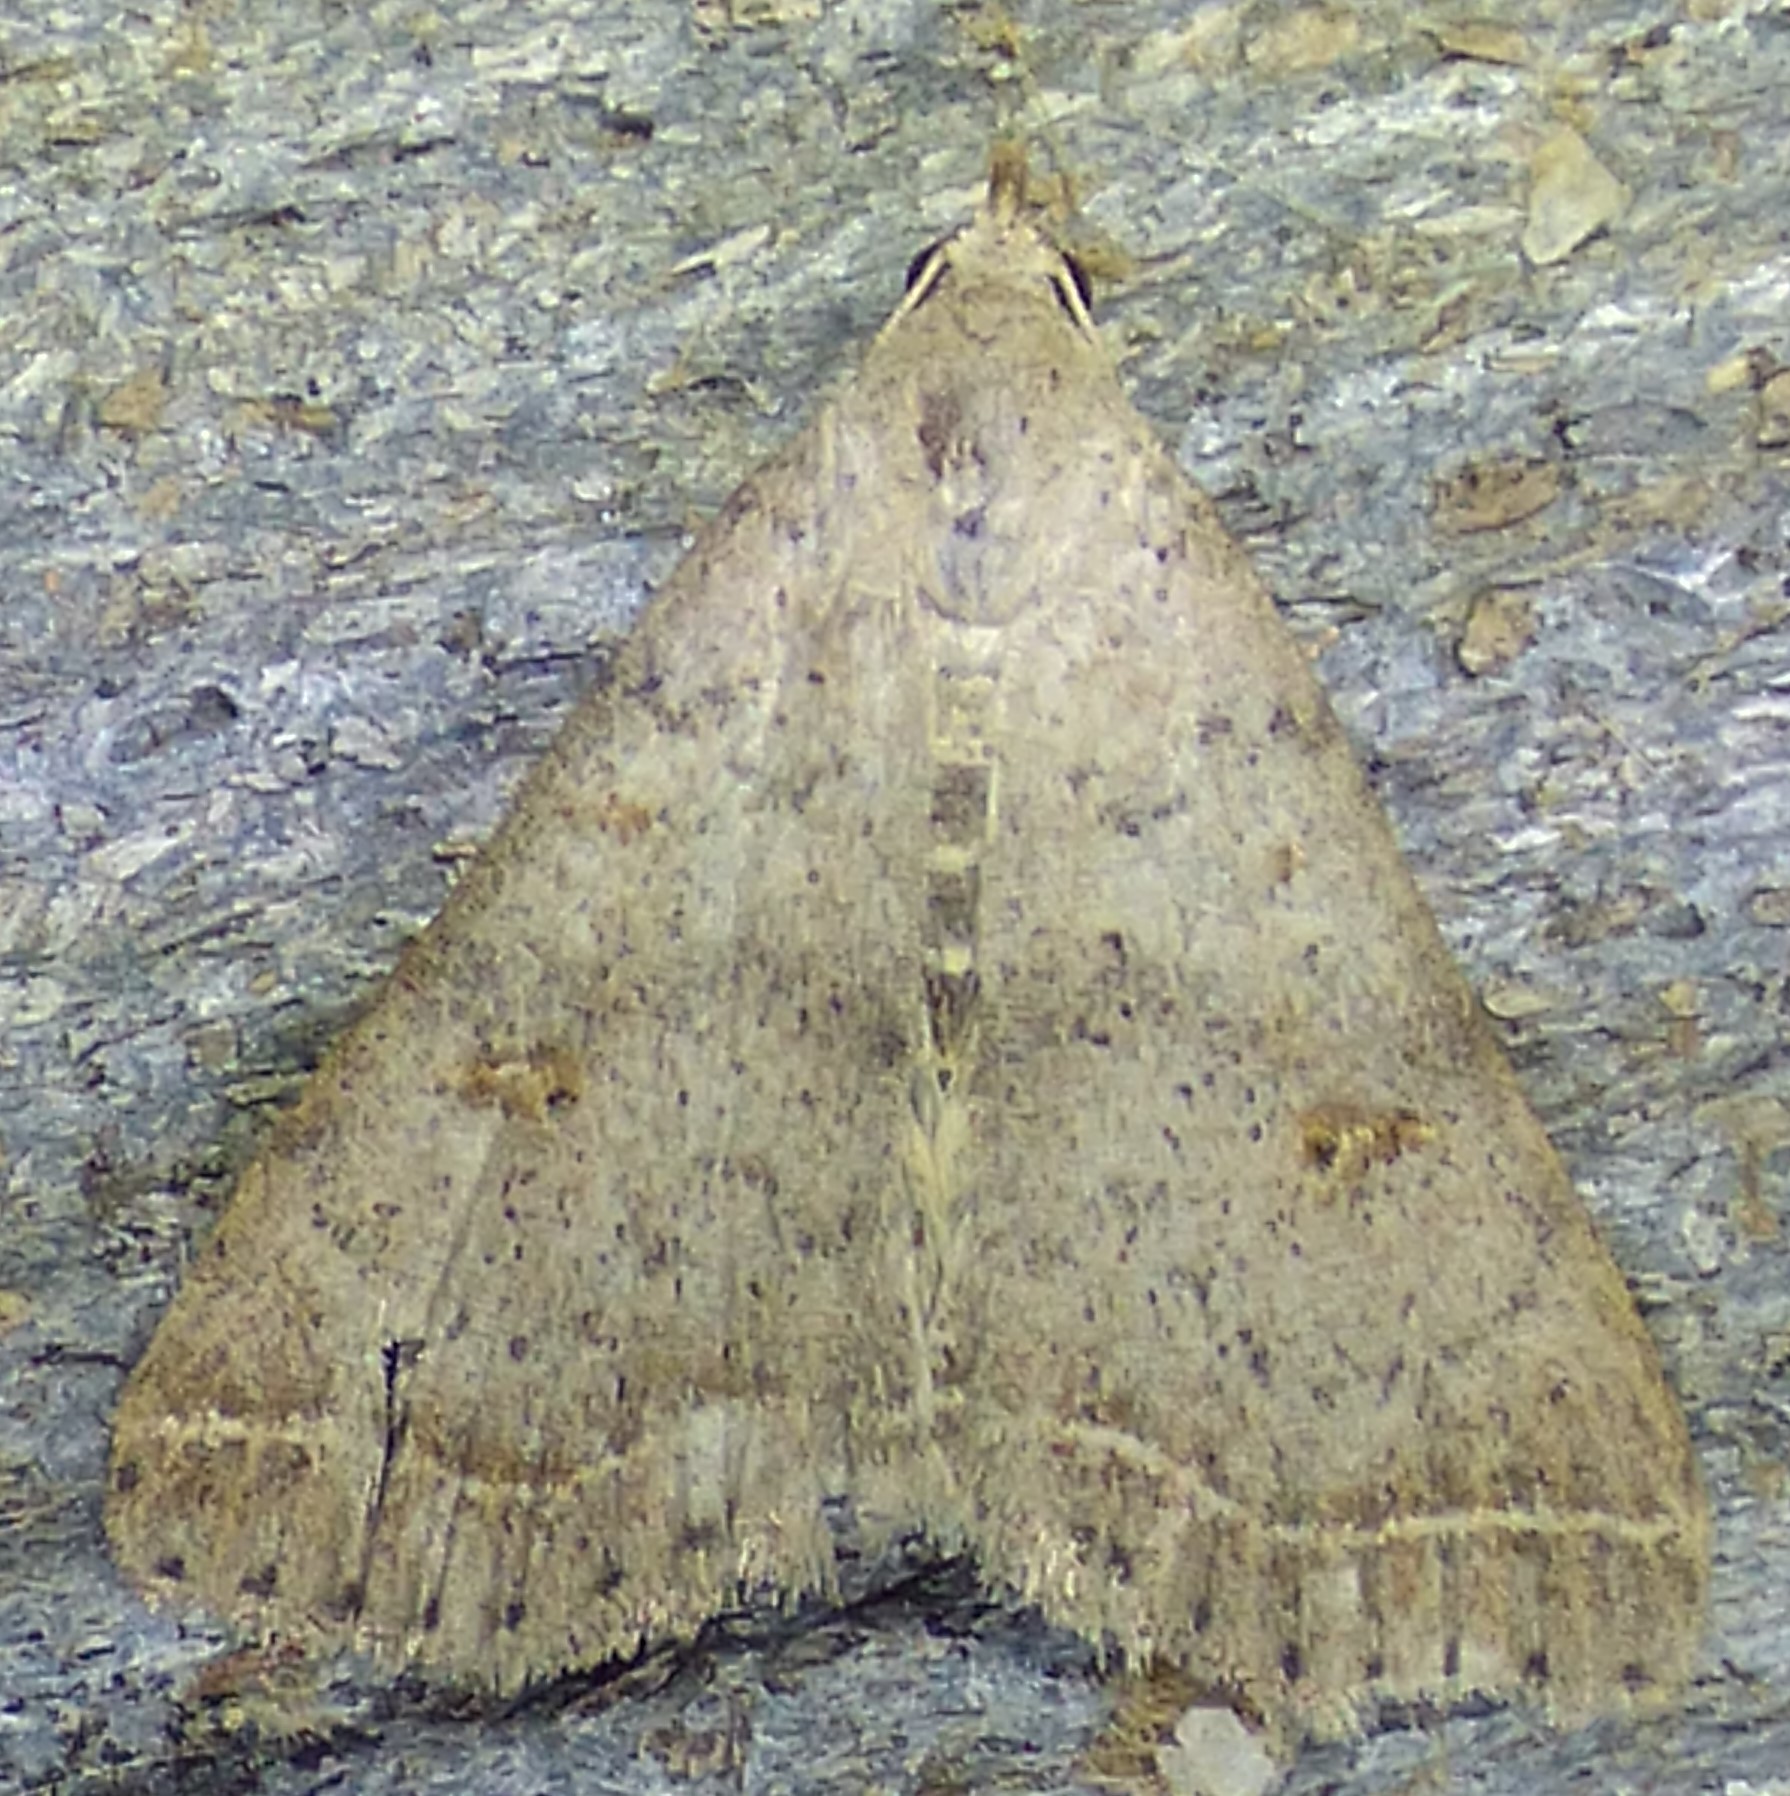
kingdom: Animalia
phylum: Arthropoda
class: Insecta
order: Lepidoptera
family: Erebidae
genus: Bleptina
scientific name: Bleptina caradrinalis
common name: Bent-winged owlet
